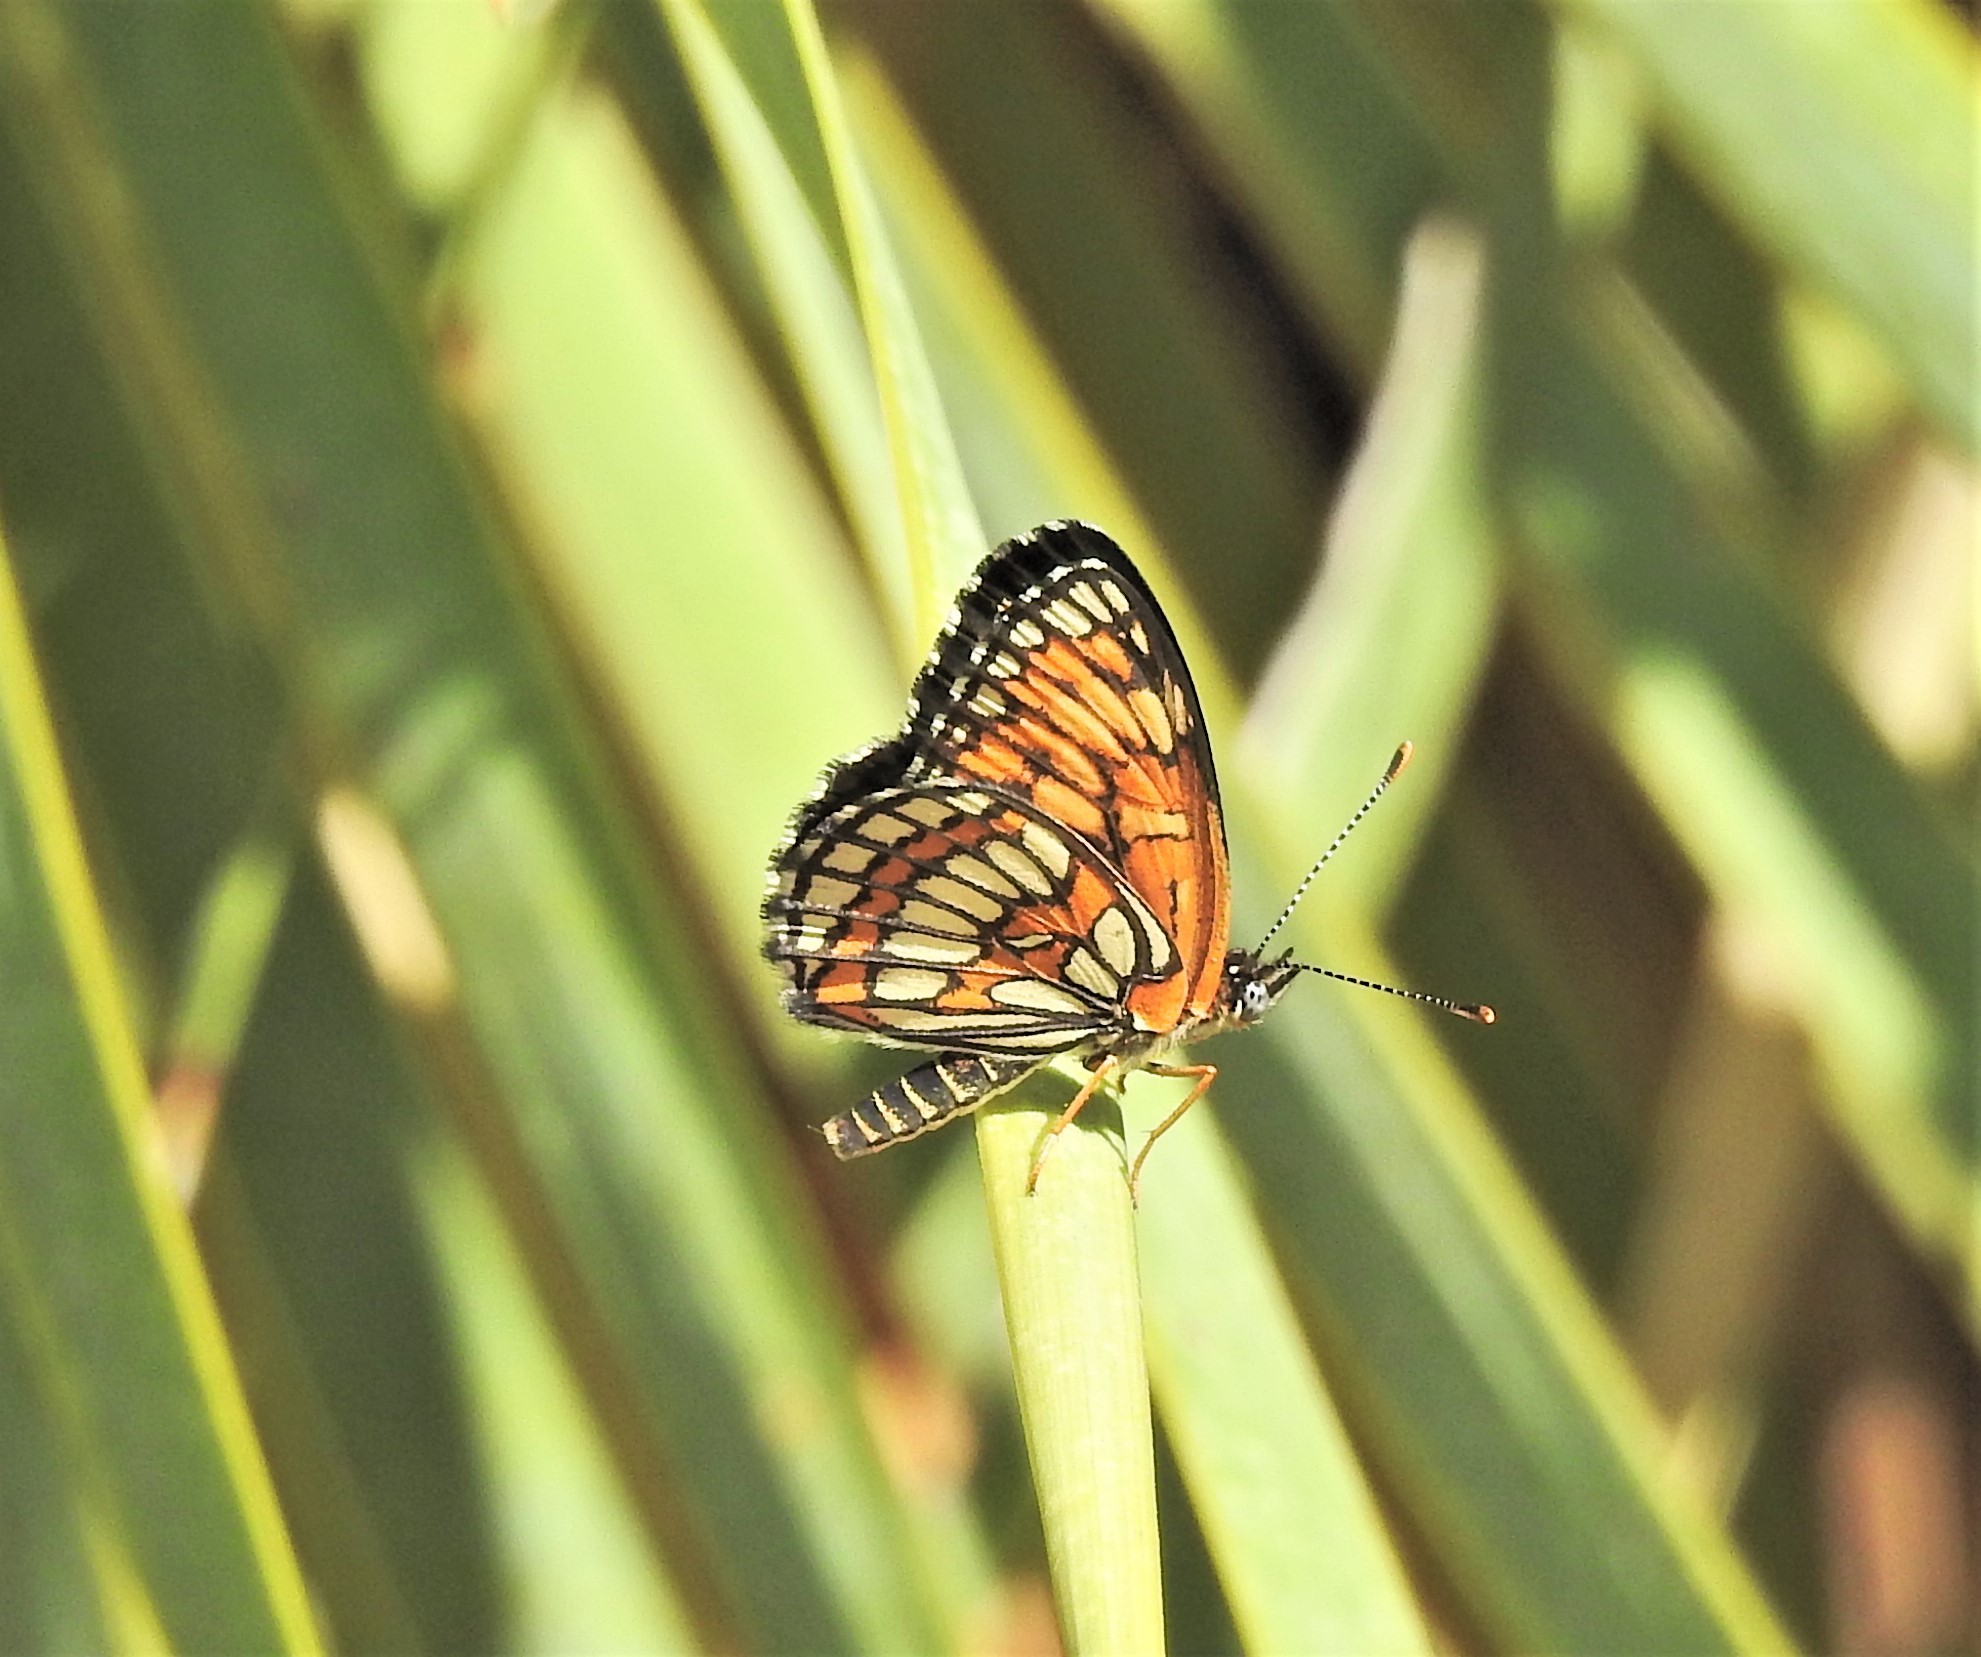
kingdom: Animalia
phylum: Arthropoda
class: Insecta
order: Lepidoptera
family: Nymphalidae
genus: Thessalia
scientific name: Thessalia theona
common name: Nymphalid moth
